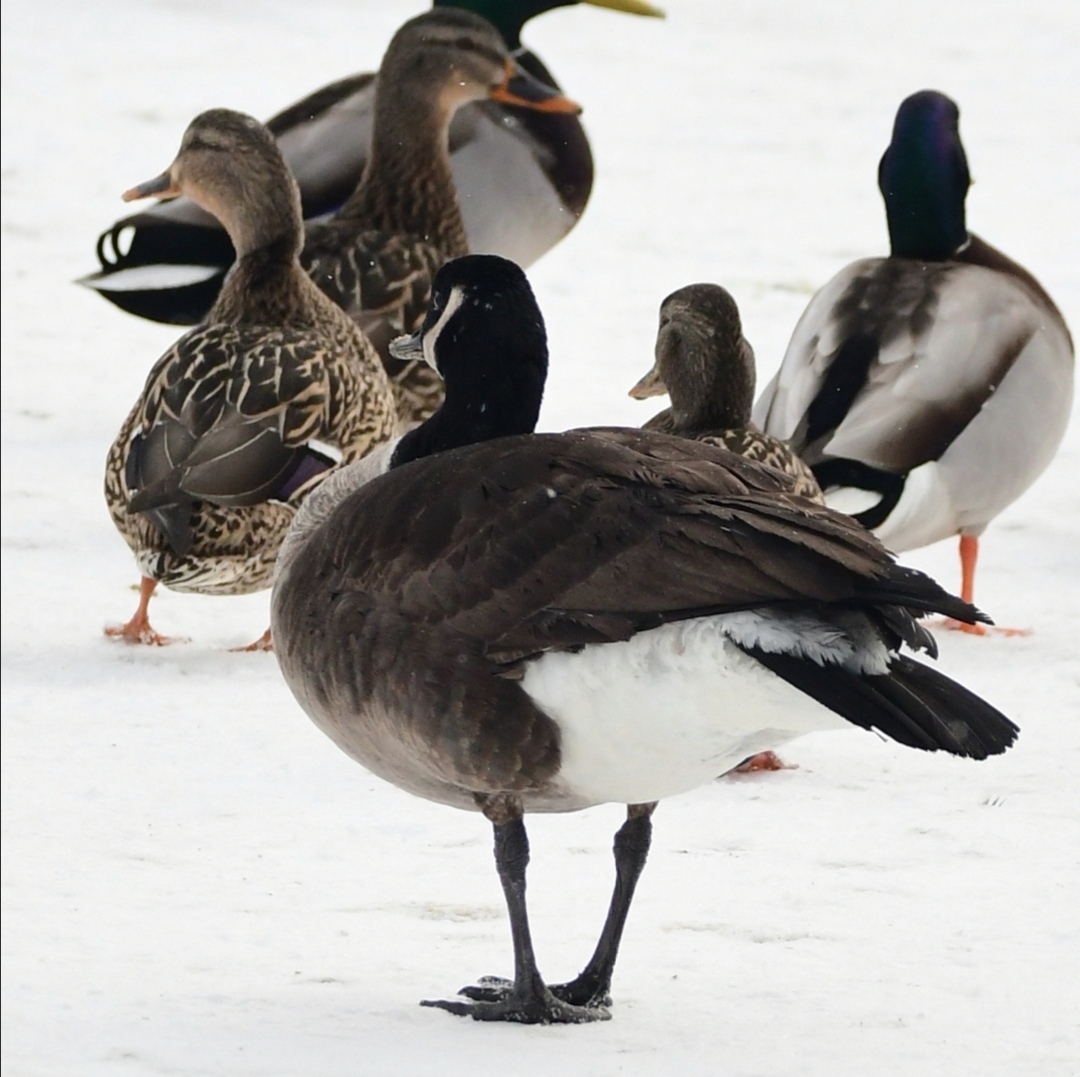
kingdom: Animalia
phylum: Chordata
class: Aves
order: Anseriformes
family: Anatidae
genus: Branta
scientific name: Branta canadensis
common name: Canada goose
